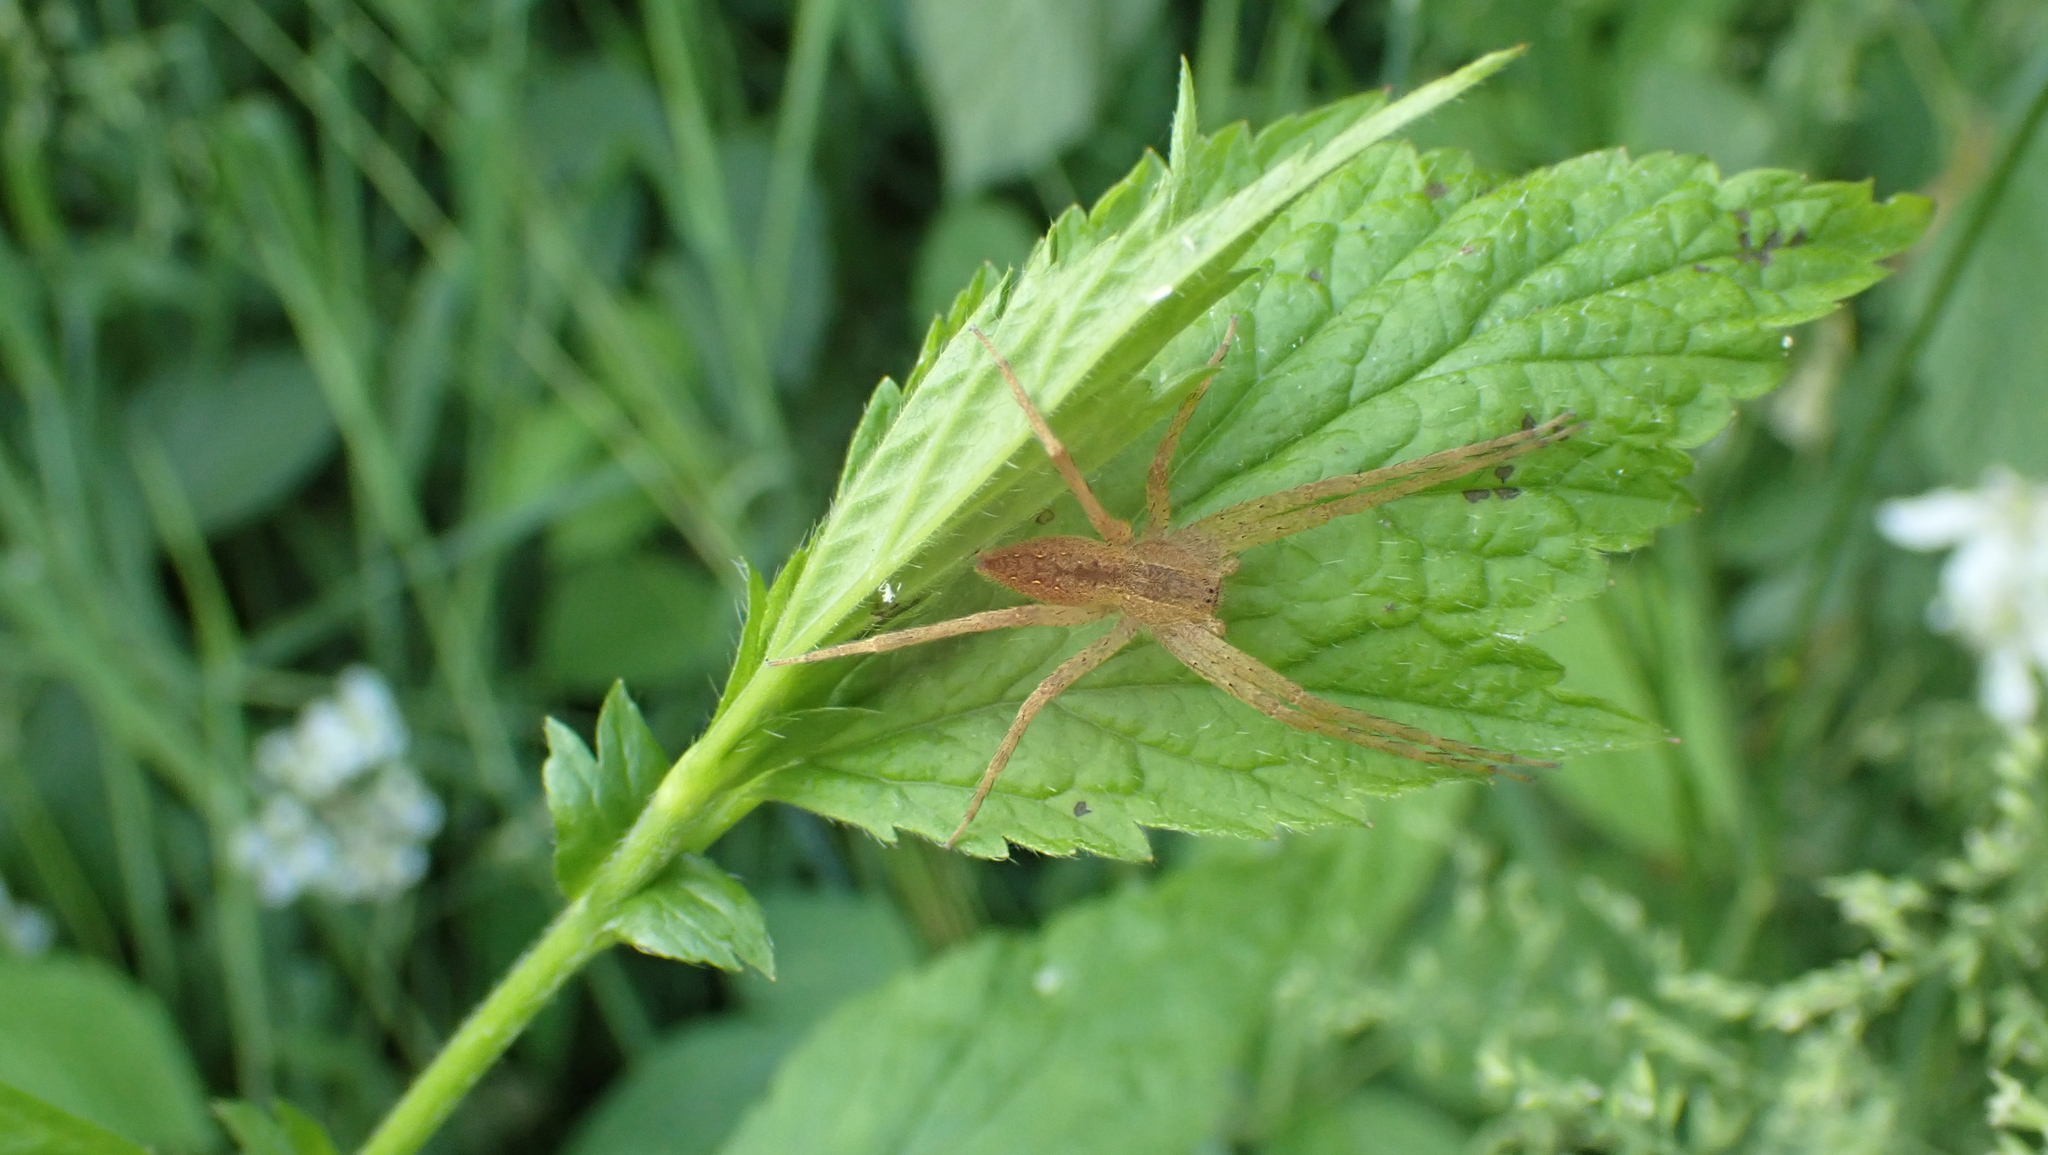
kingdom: Animalia
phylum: Arthropoda
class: Arachnida
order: Araneae
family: Pisauridae
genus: Pisaurina
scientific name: Pisaurina mira
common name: American nursery web spider
